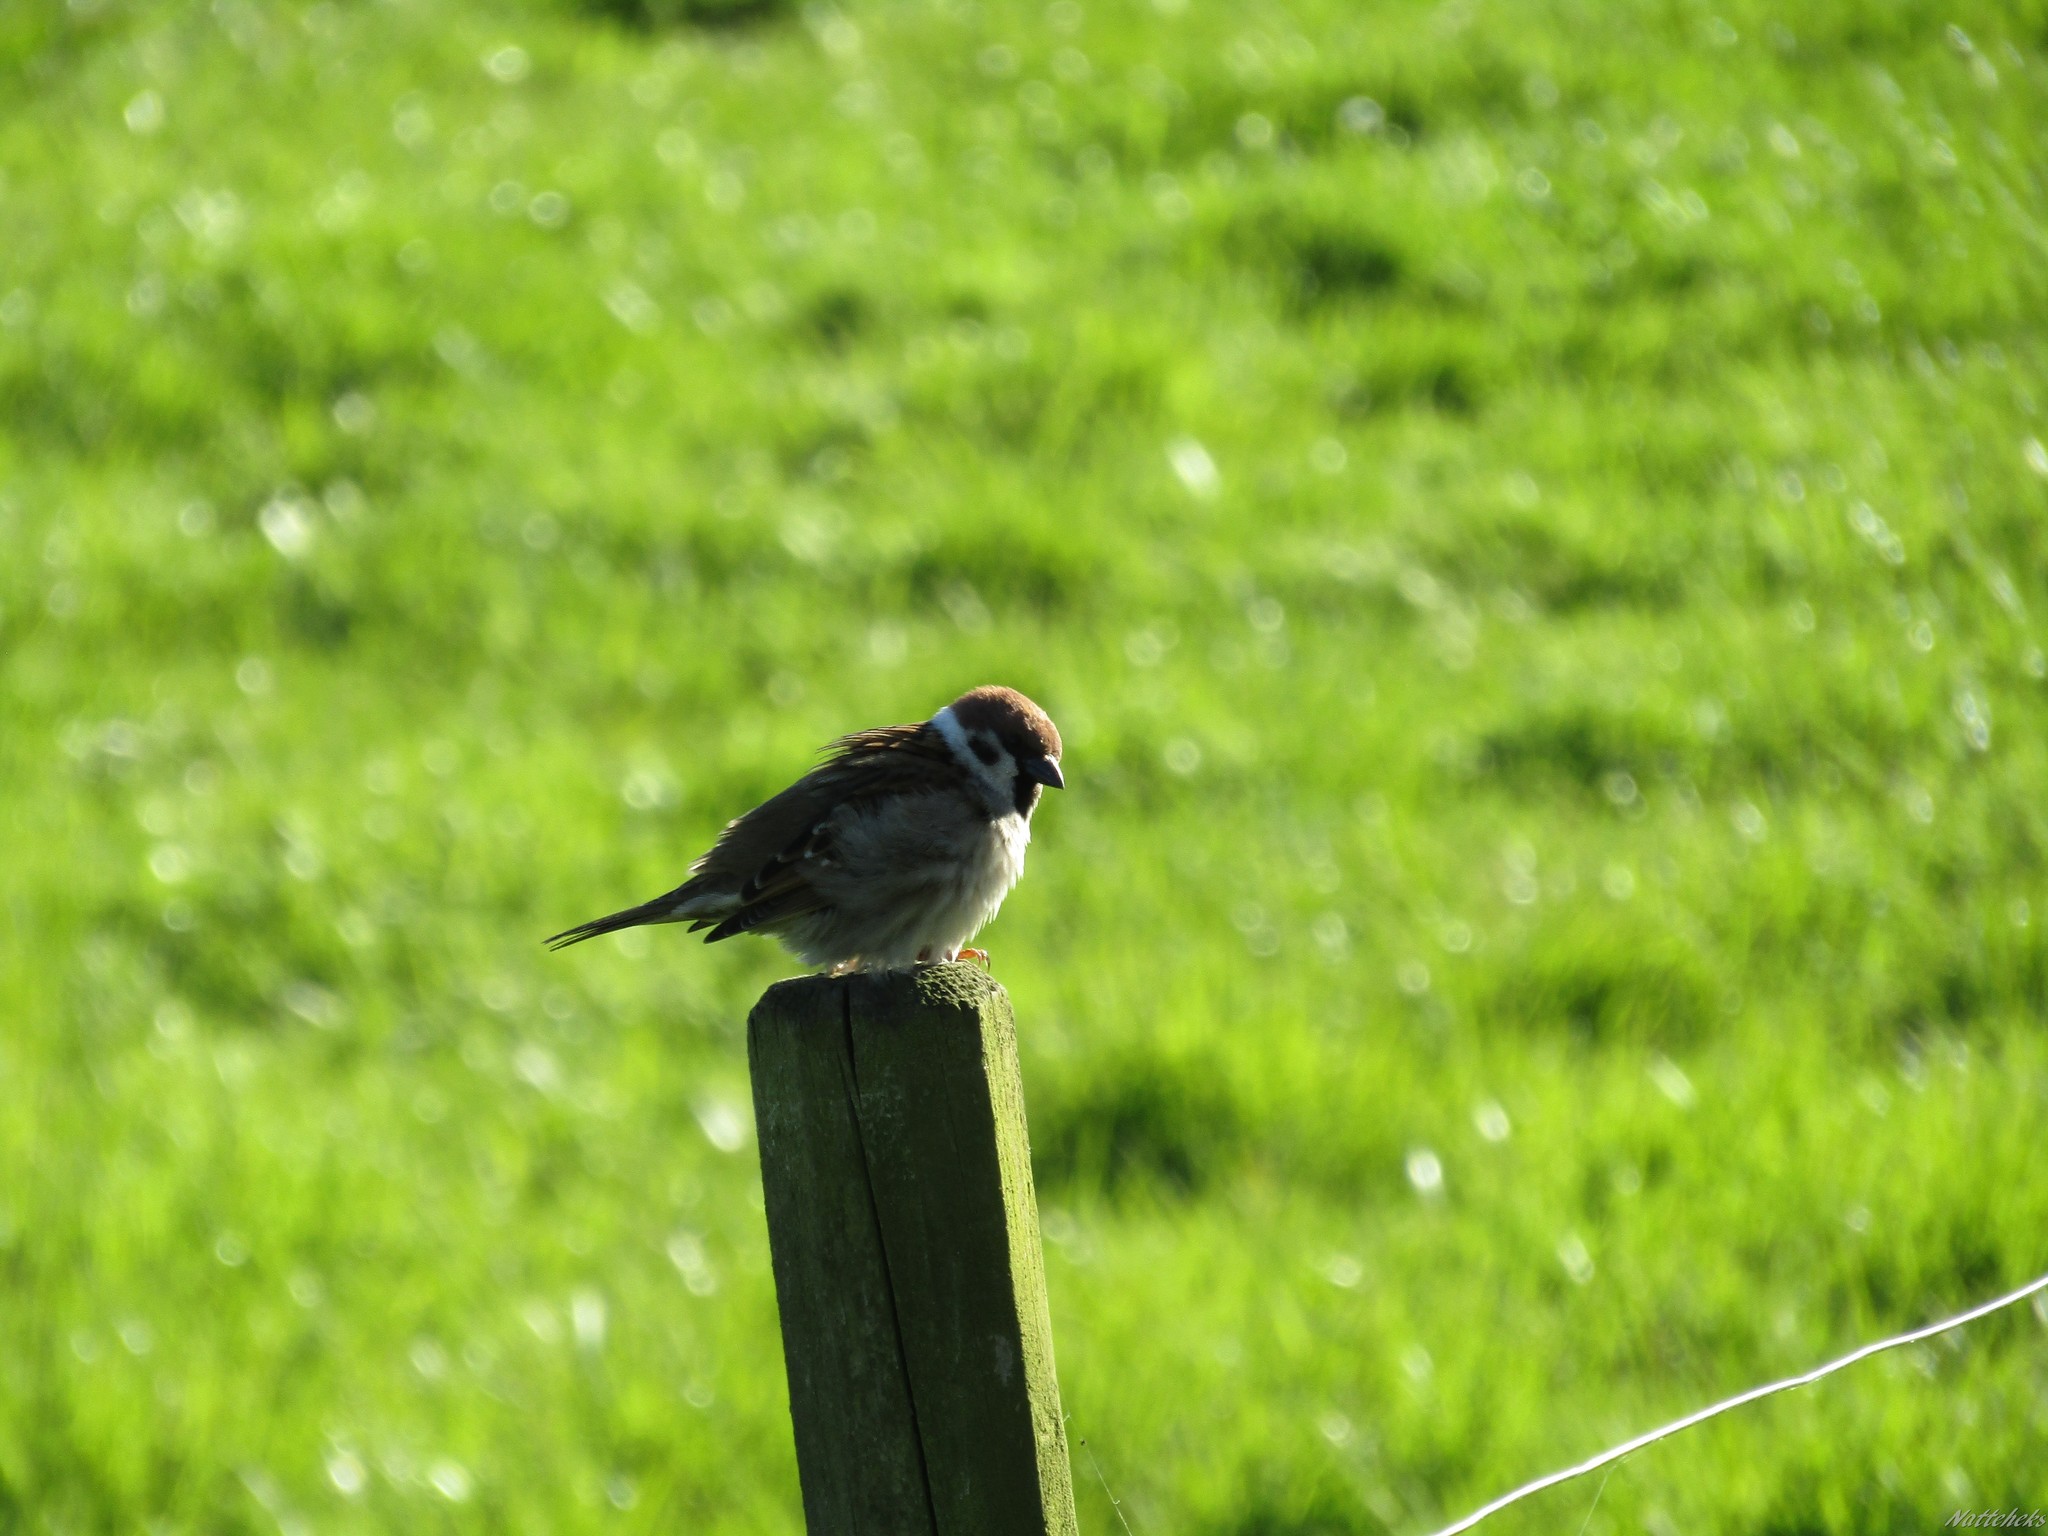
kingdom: Animalia
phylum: Chordata
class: Aves
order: Passeriformes
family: Passeridae
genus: Passer
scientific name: Passer montanus
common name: Eurasian tree sparrow
